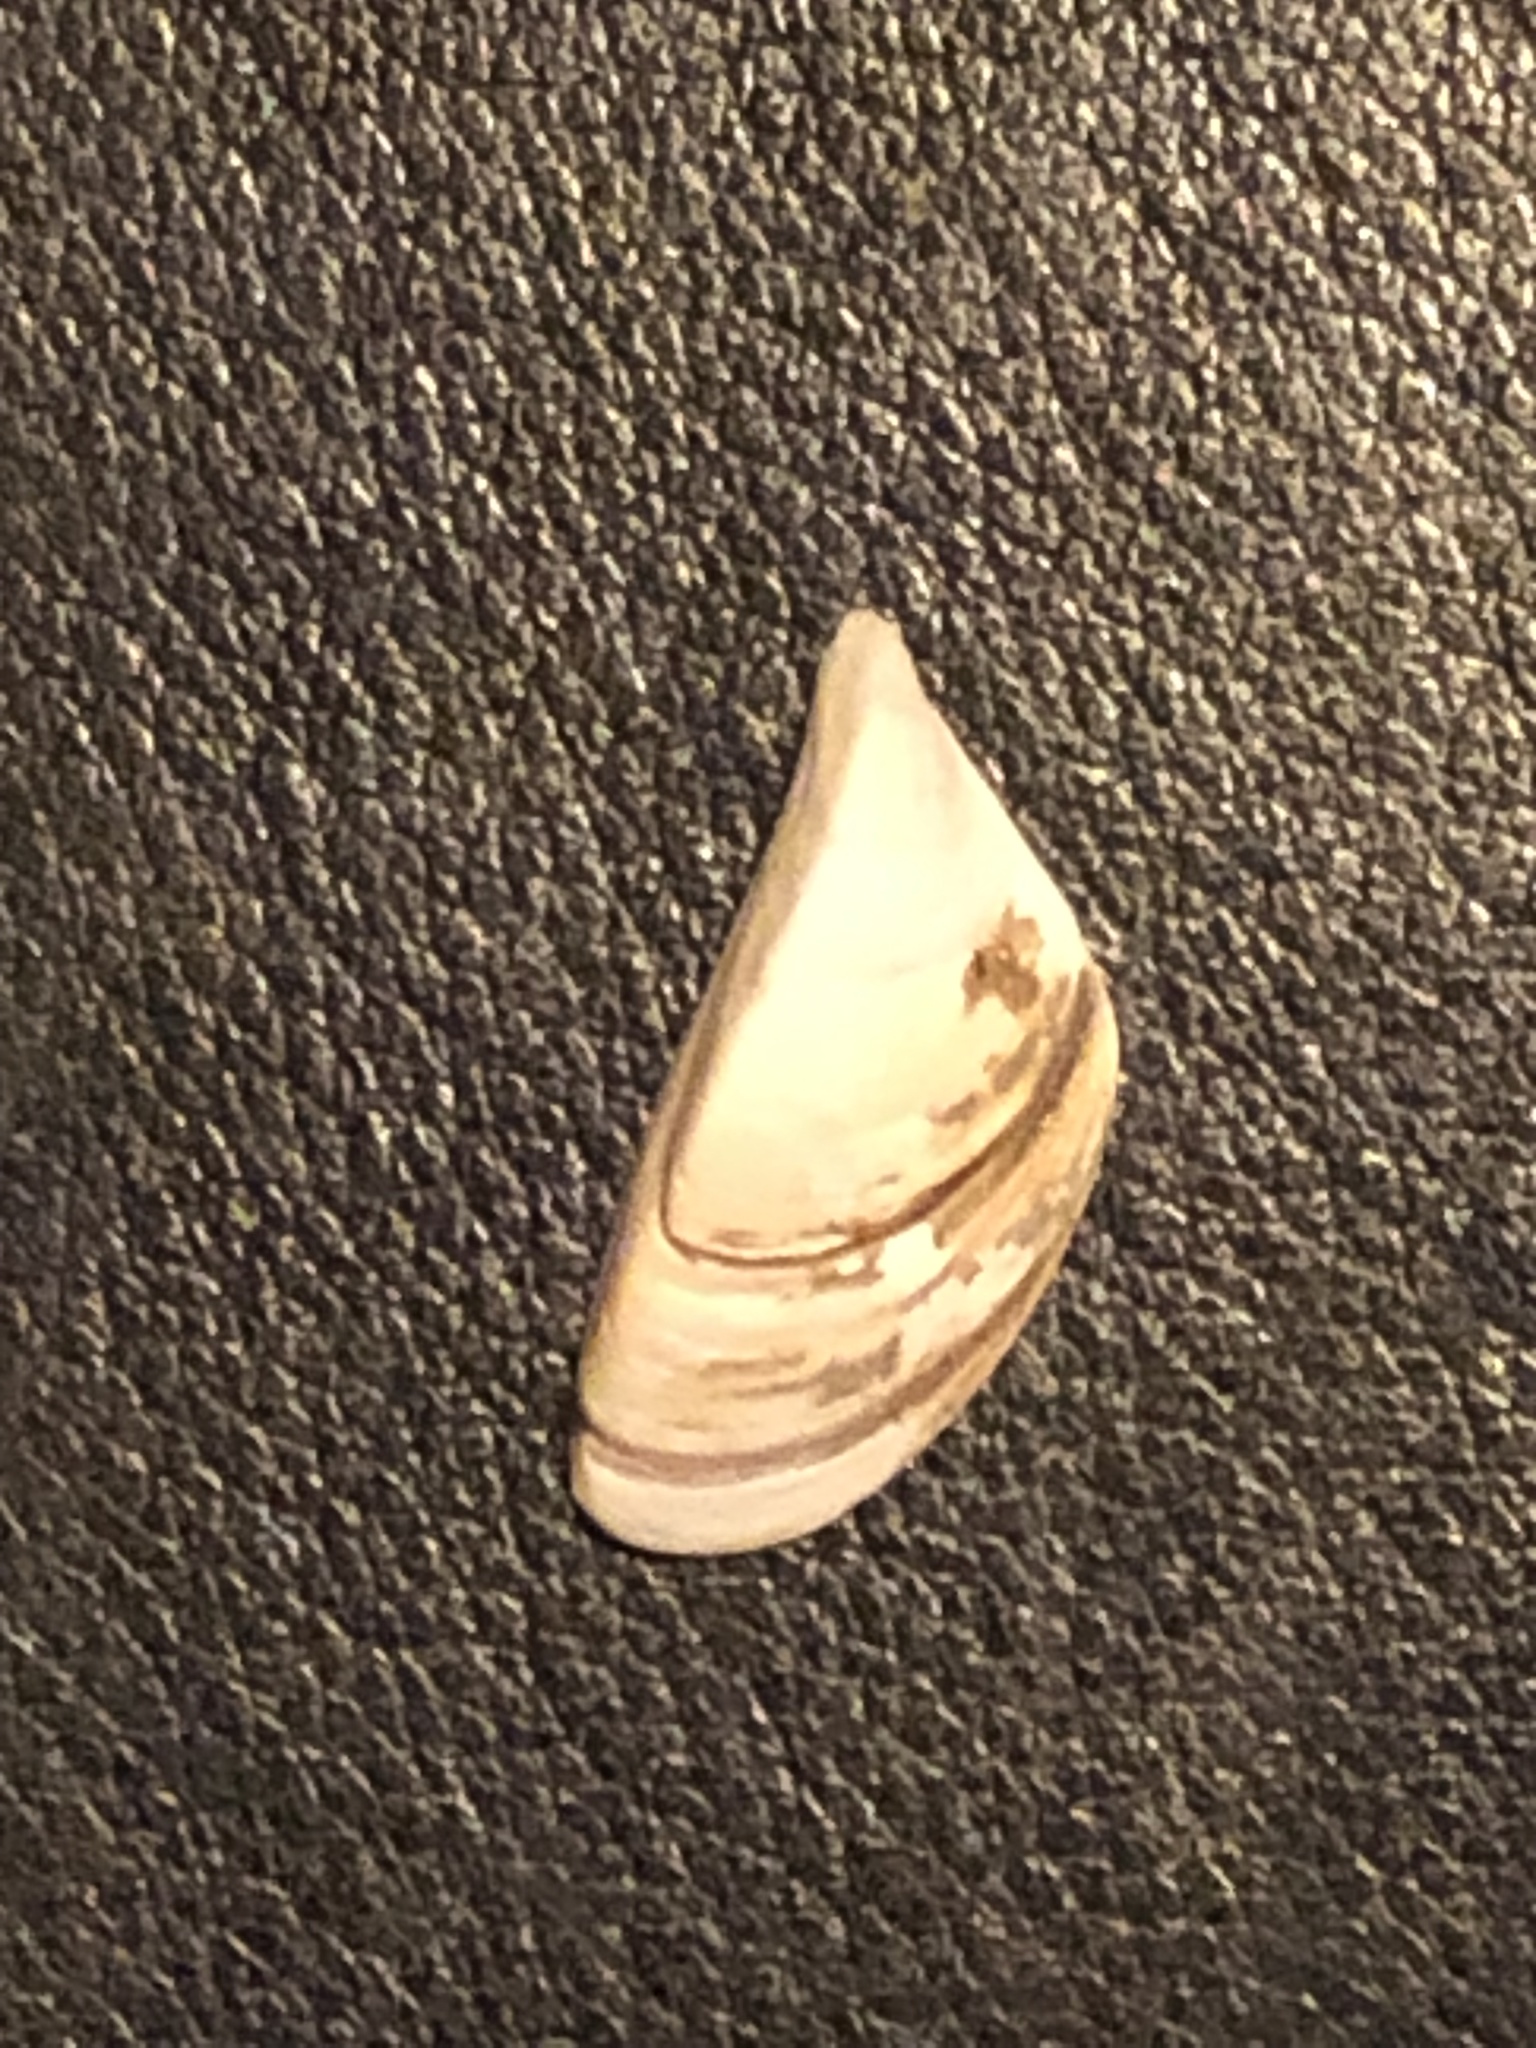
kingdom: Animalia
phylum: Mollusca
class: Bivalvia
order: Myida
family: Dreissenidae
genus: Dreissena
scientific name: Dreissena polymorpha
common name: Zebra mussel
